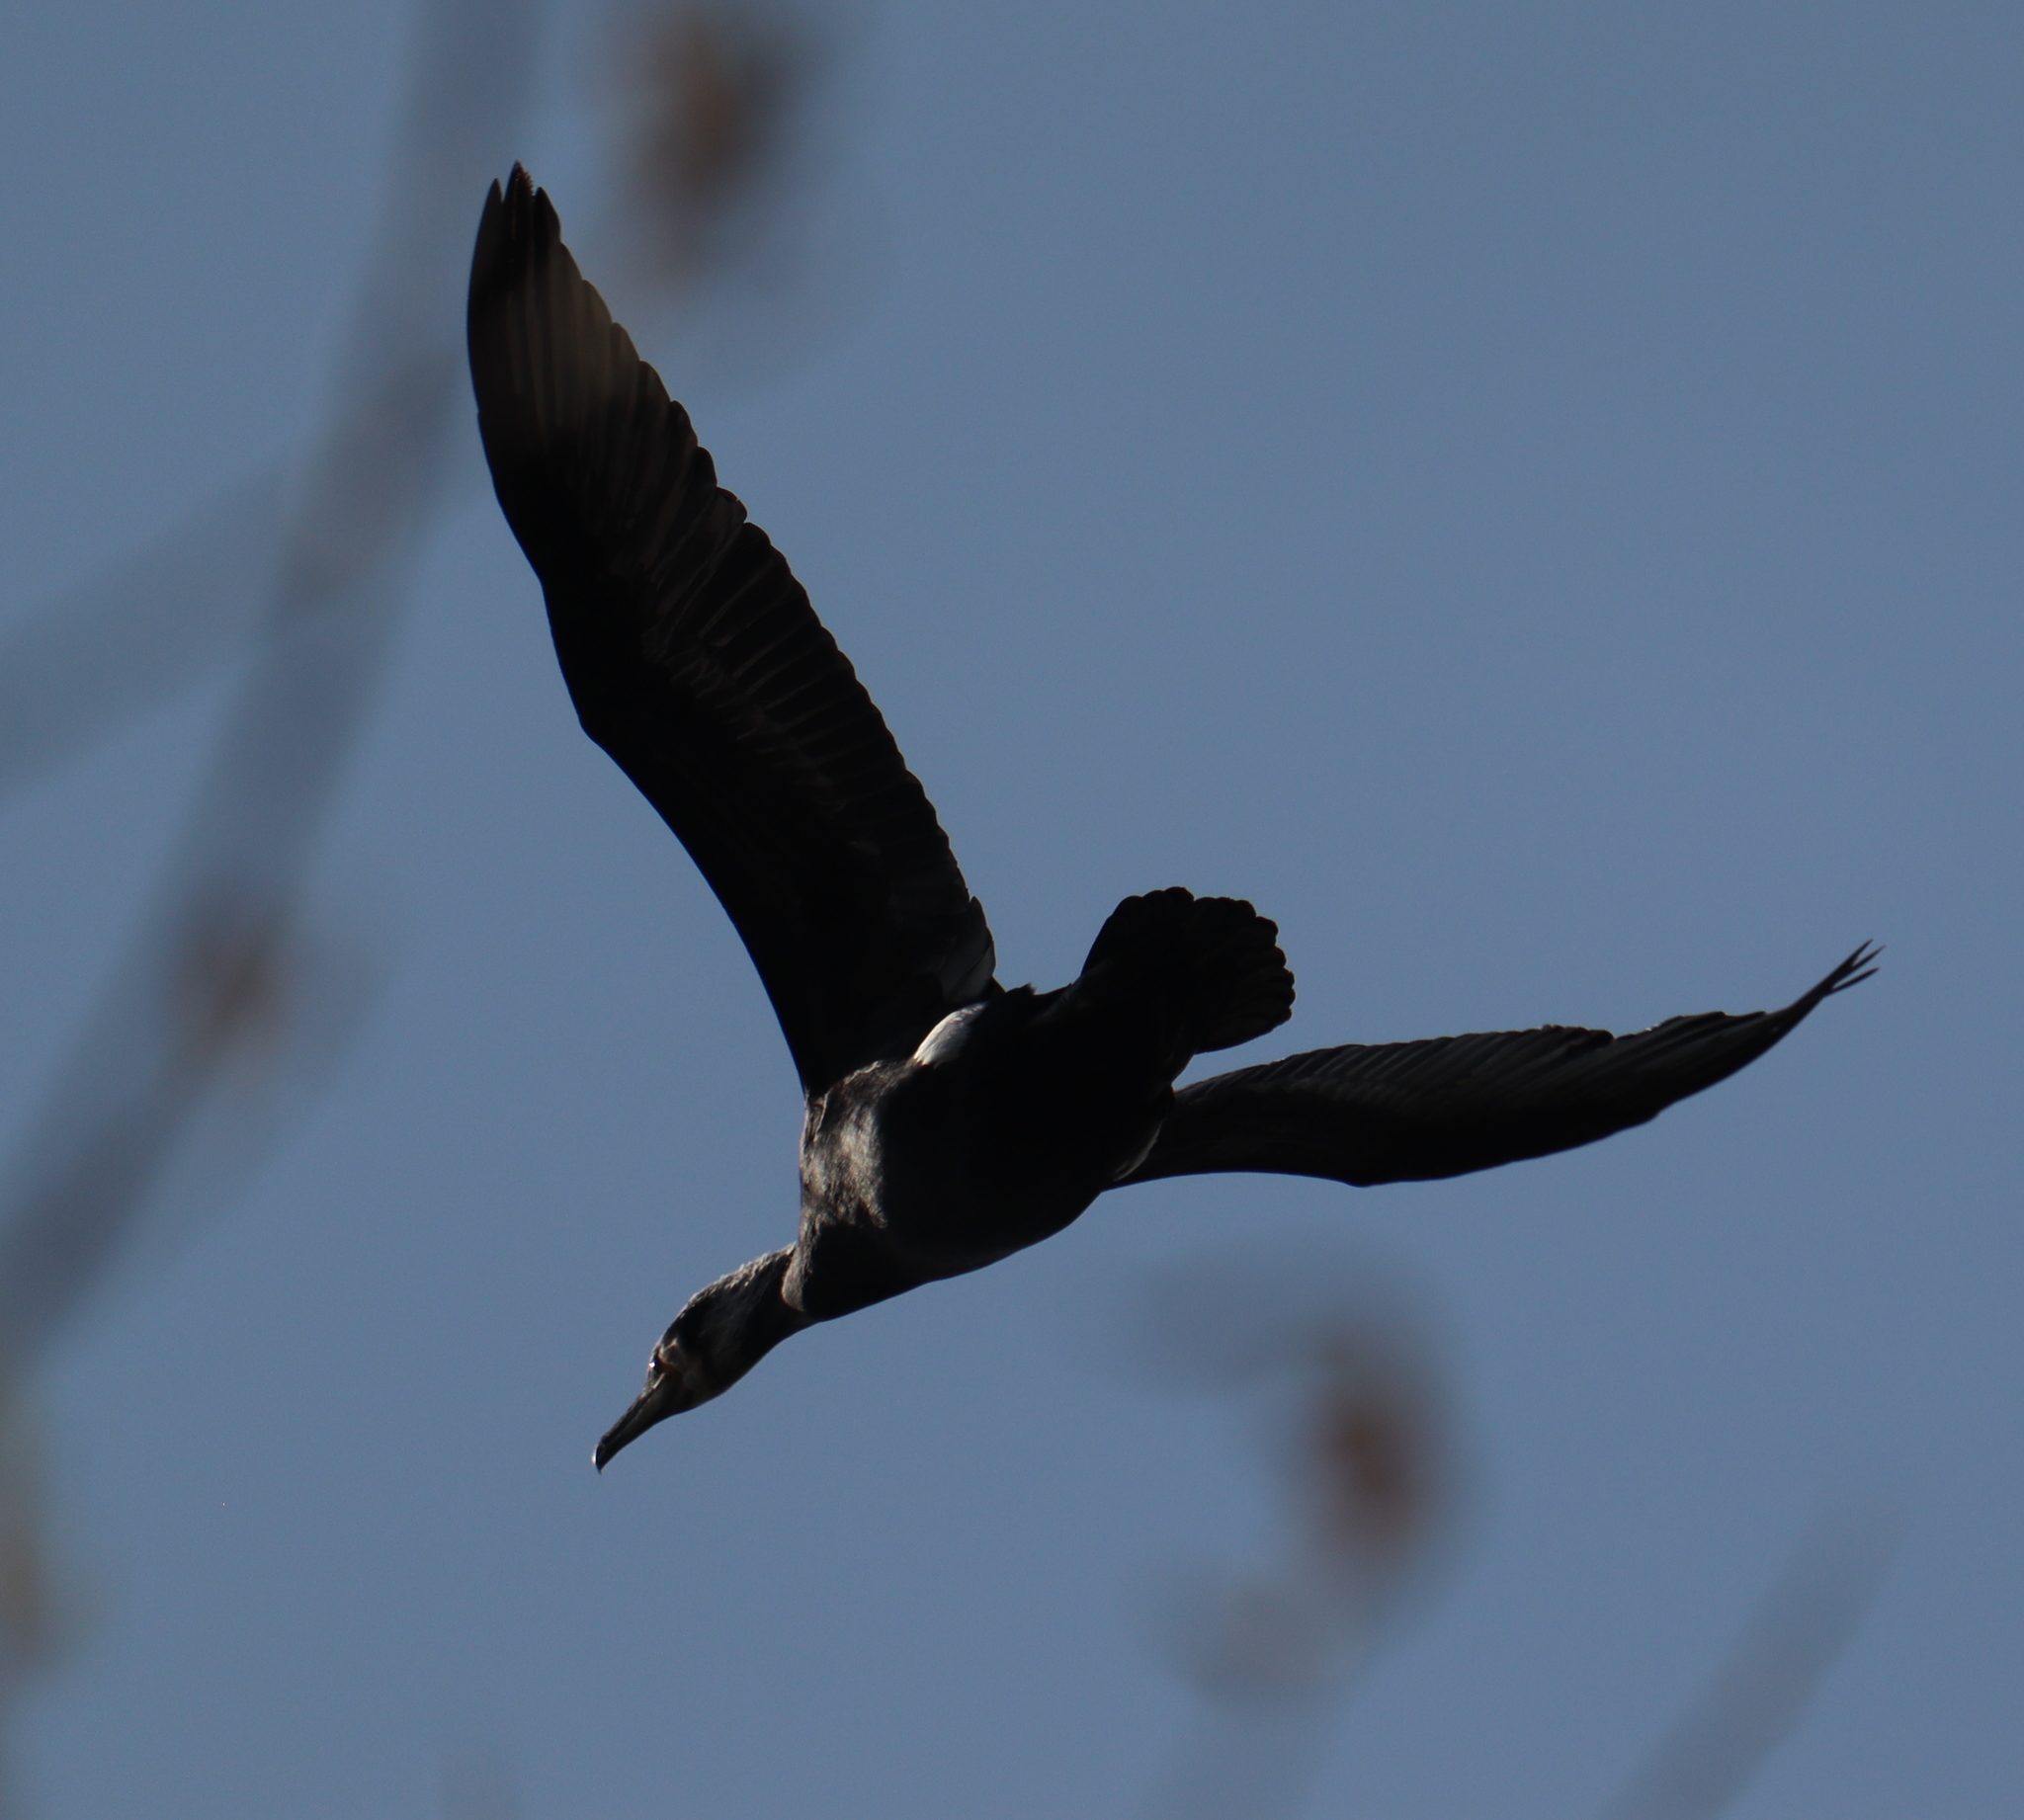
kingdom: Animalia
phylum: Chordata
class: Aves
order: Suliformes
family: Phalacrocoracidae
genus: Phalacrocorax
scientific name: Phalacrocorax carbo
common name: Great cormorant
